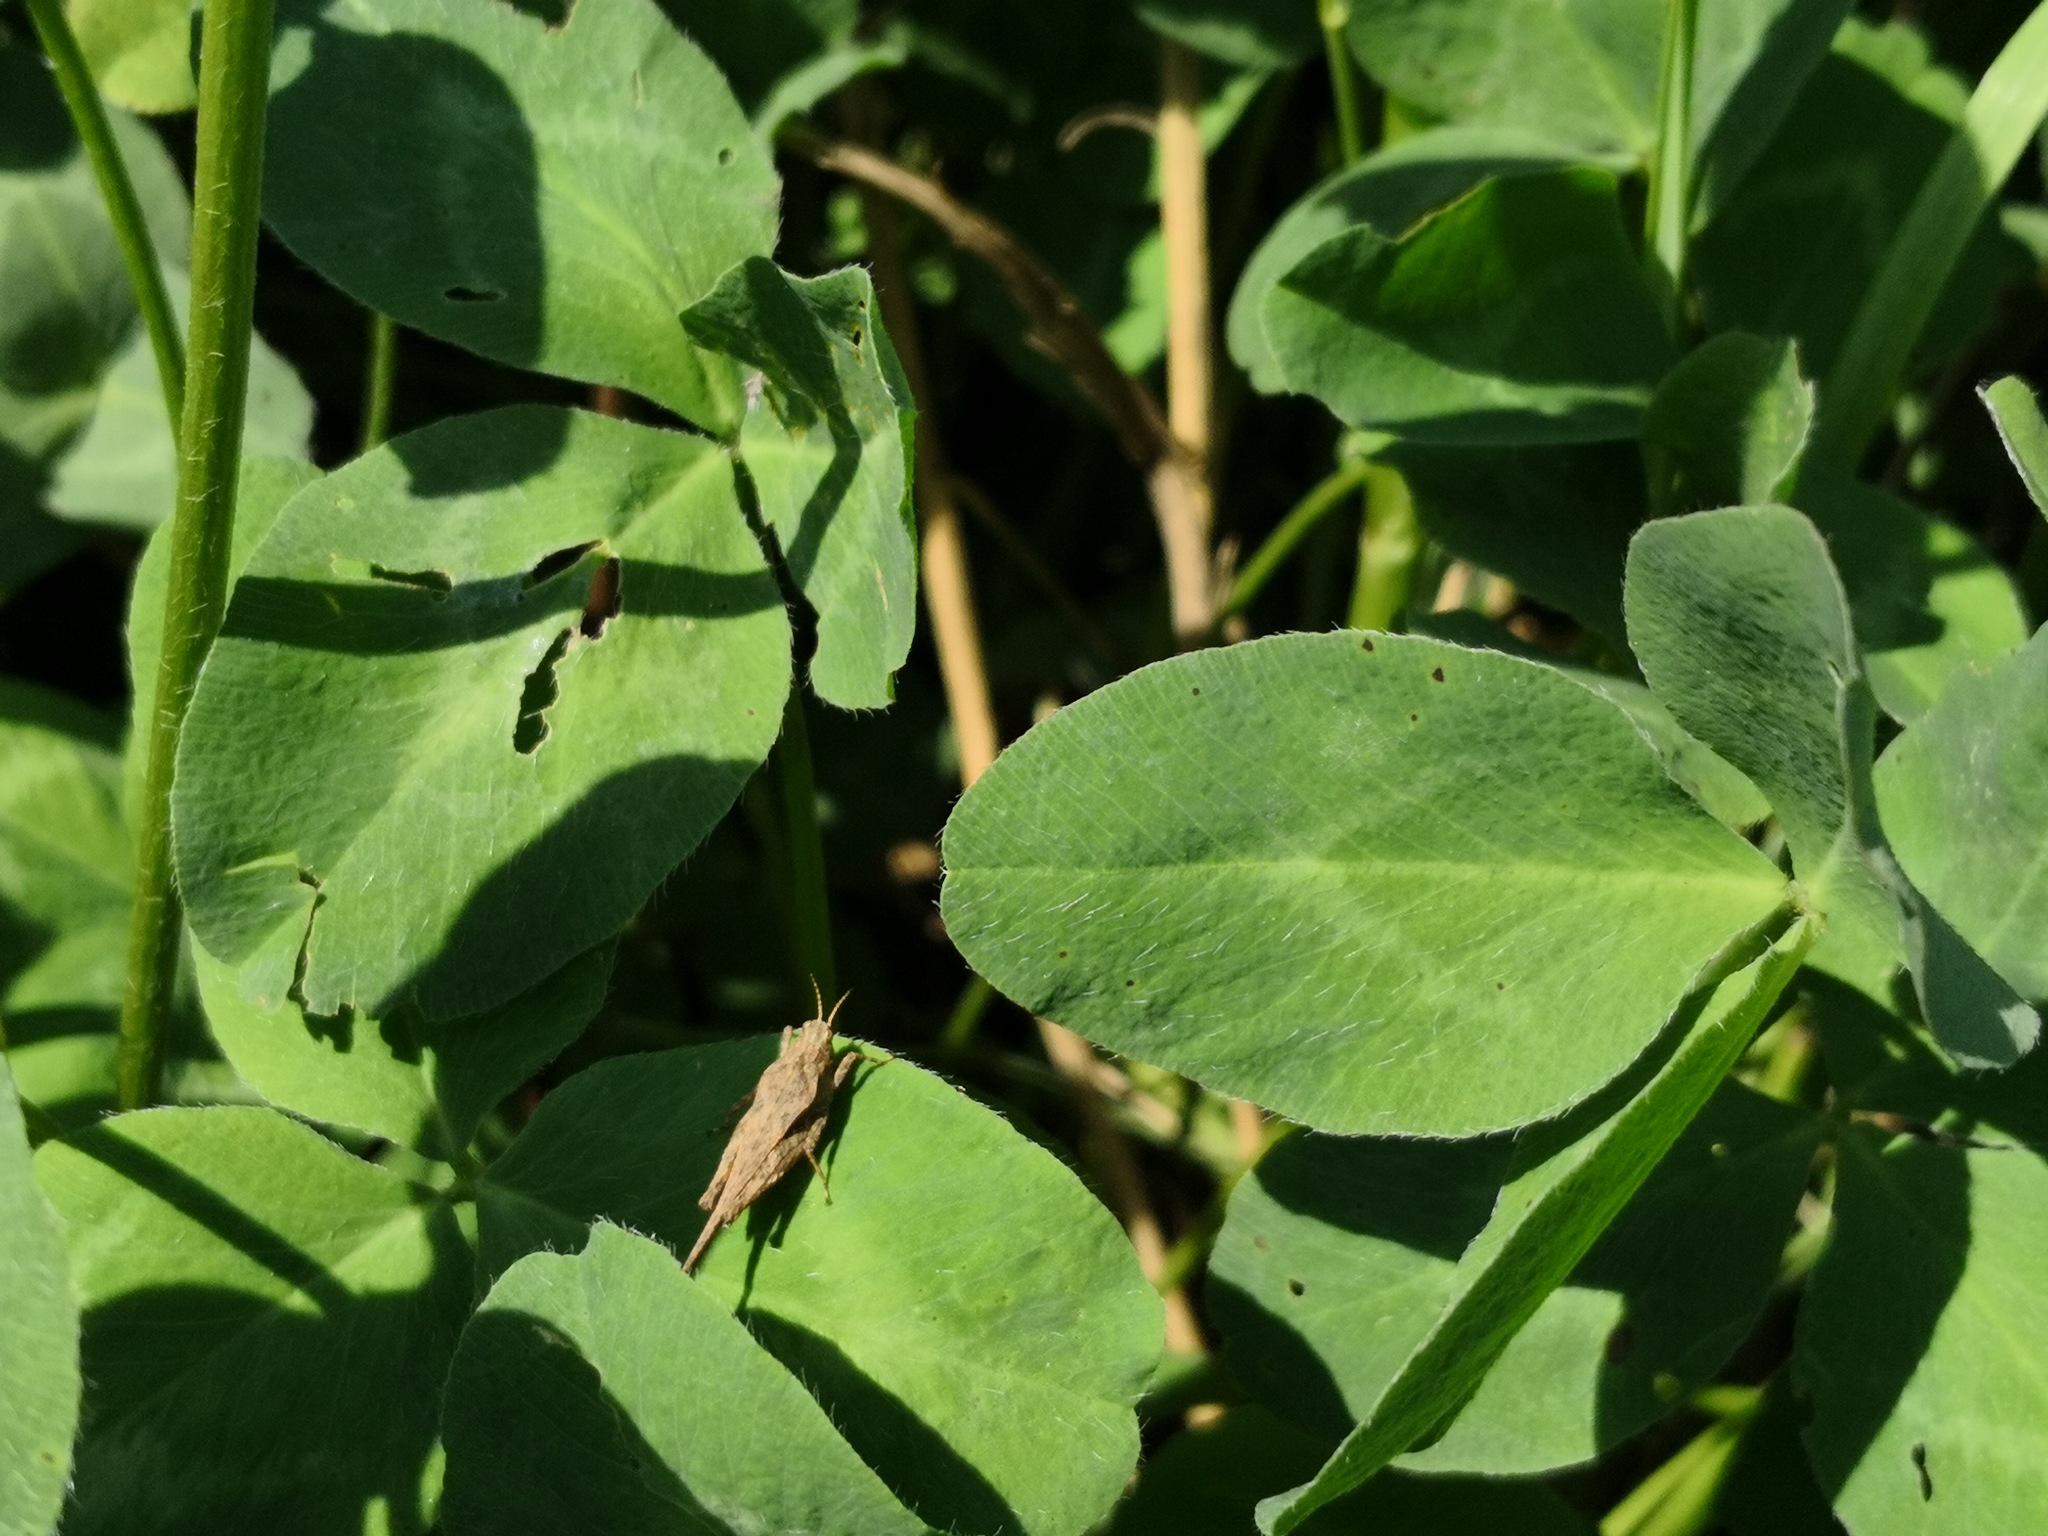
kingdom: Animalia
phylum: Arthropoda
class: Insecta
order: Orthoptera
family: Tetrigidae
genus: Tetrix
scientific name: Tetrix subulata
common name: Slender ground-hopper
